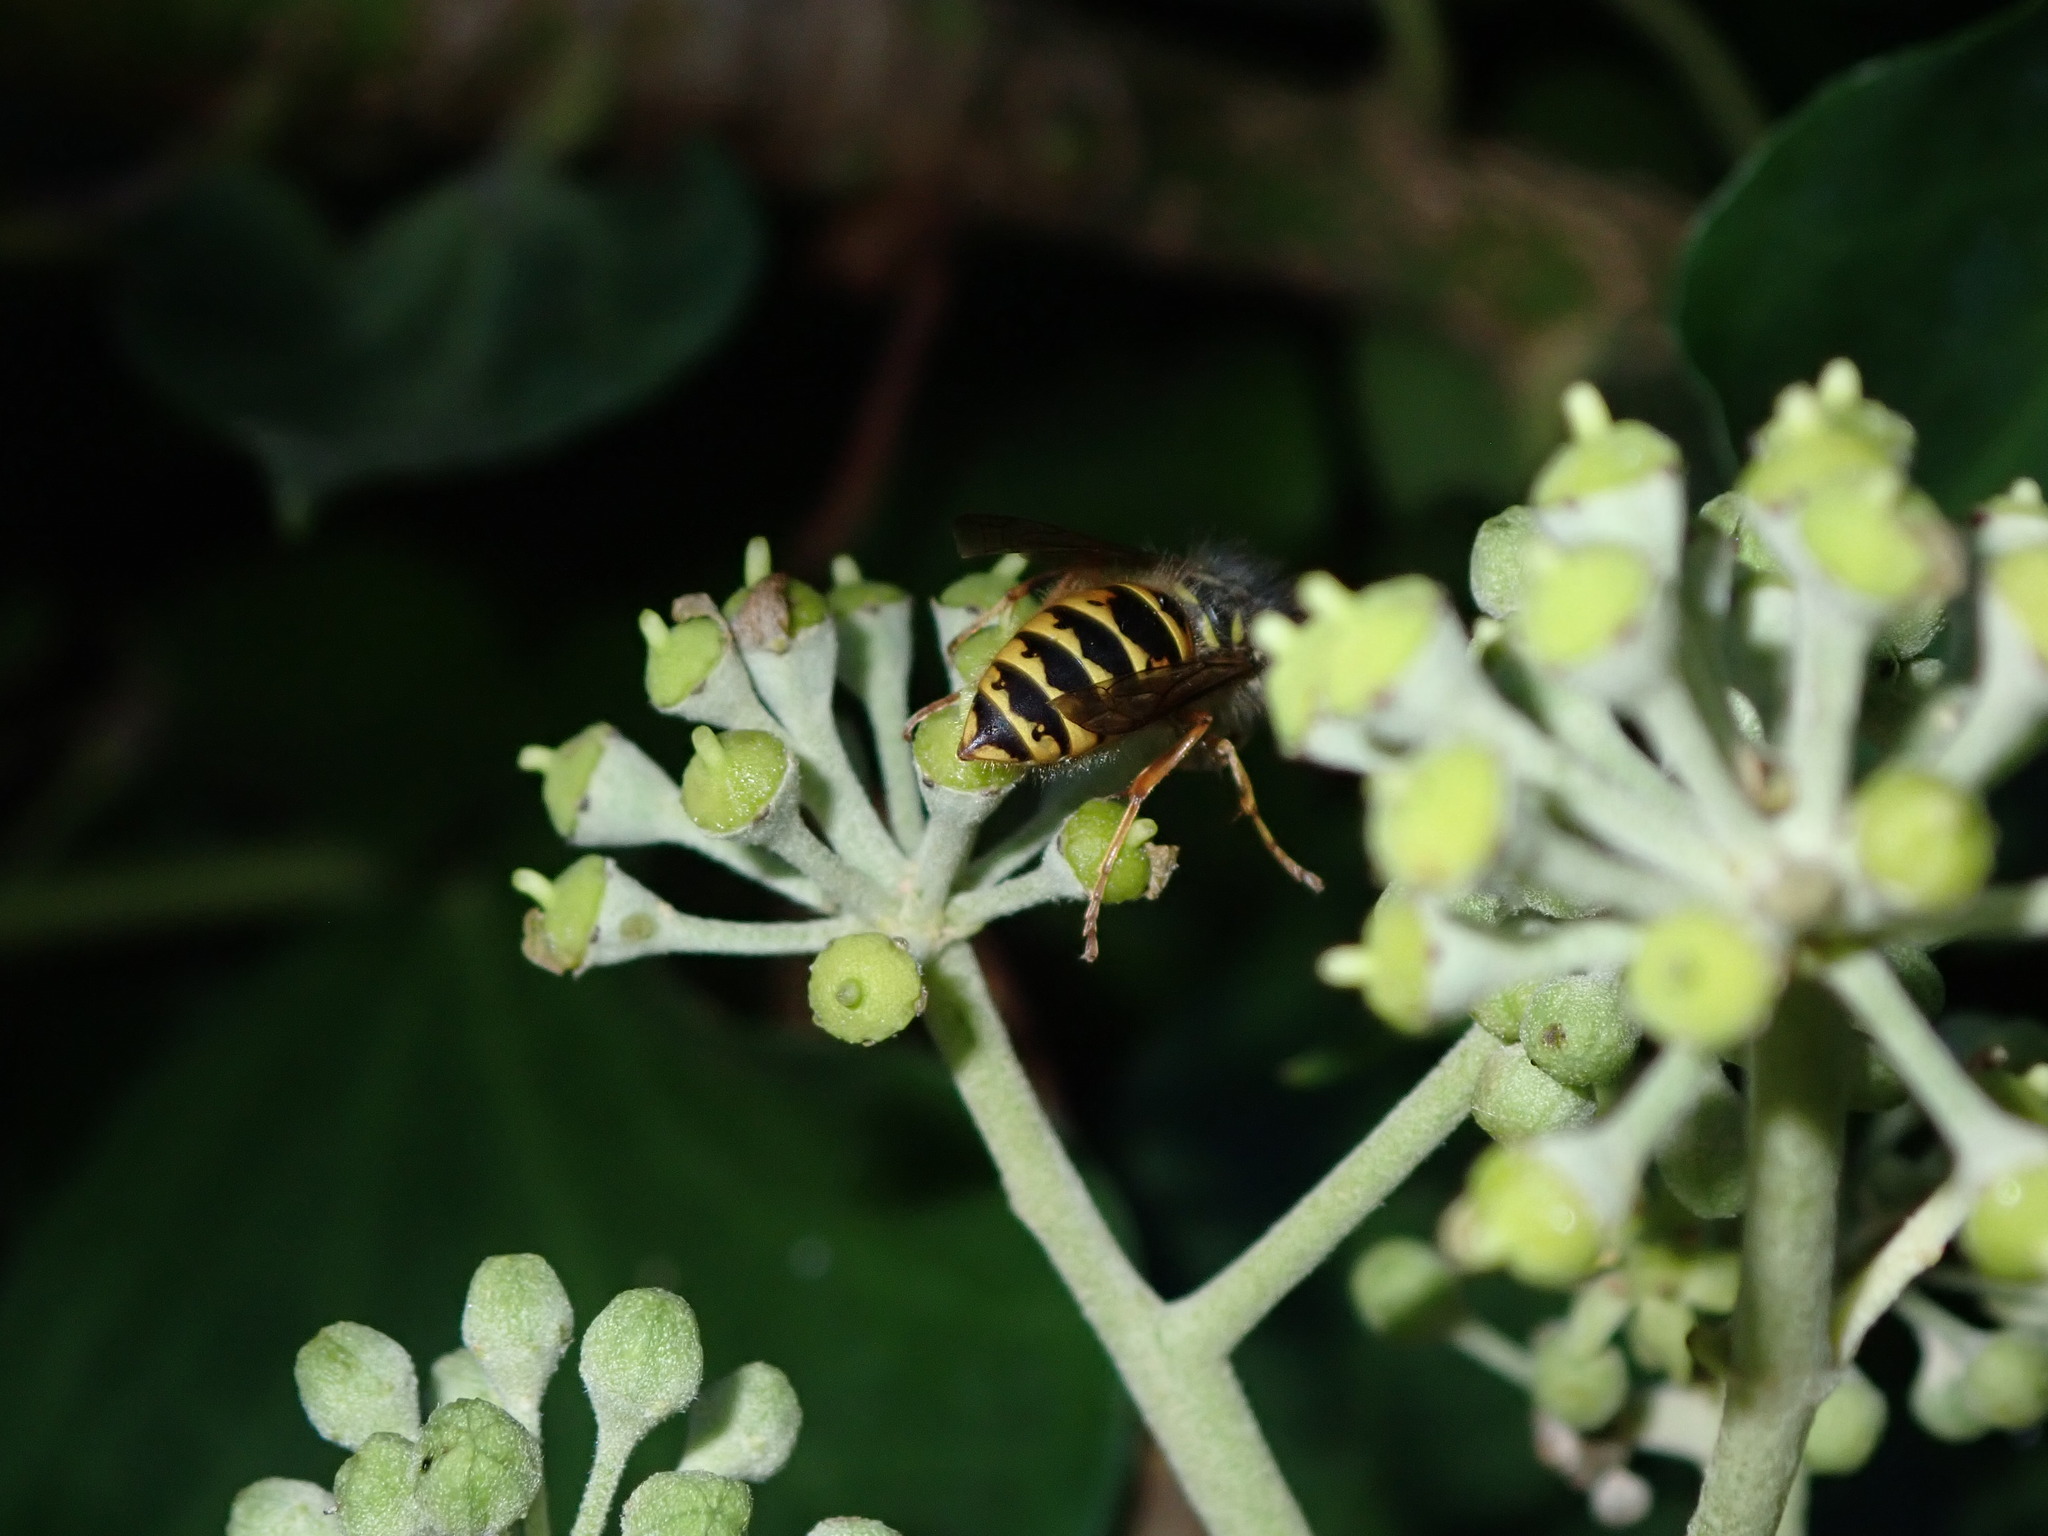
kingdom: Animalia
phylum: Arthropoda
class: Insecta
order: Hymenoptera
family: Vespidae
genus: Vespula
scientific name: Vespula vulgaris
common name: Common wasp
